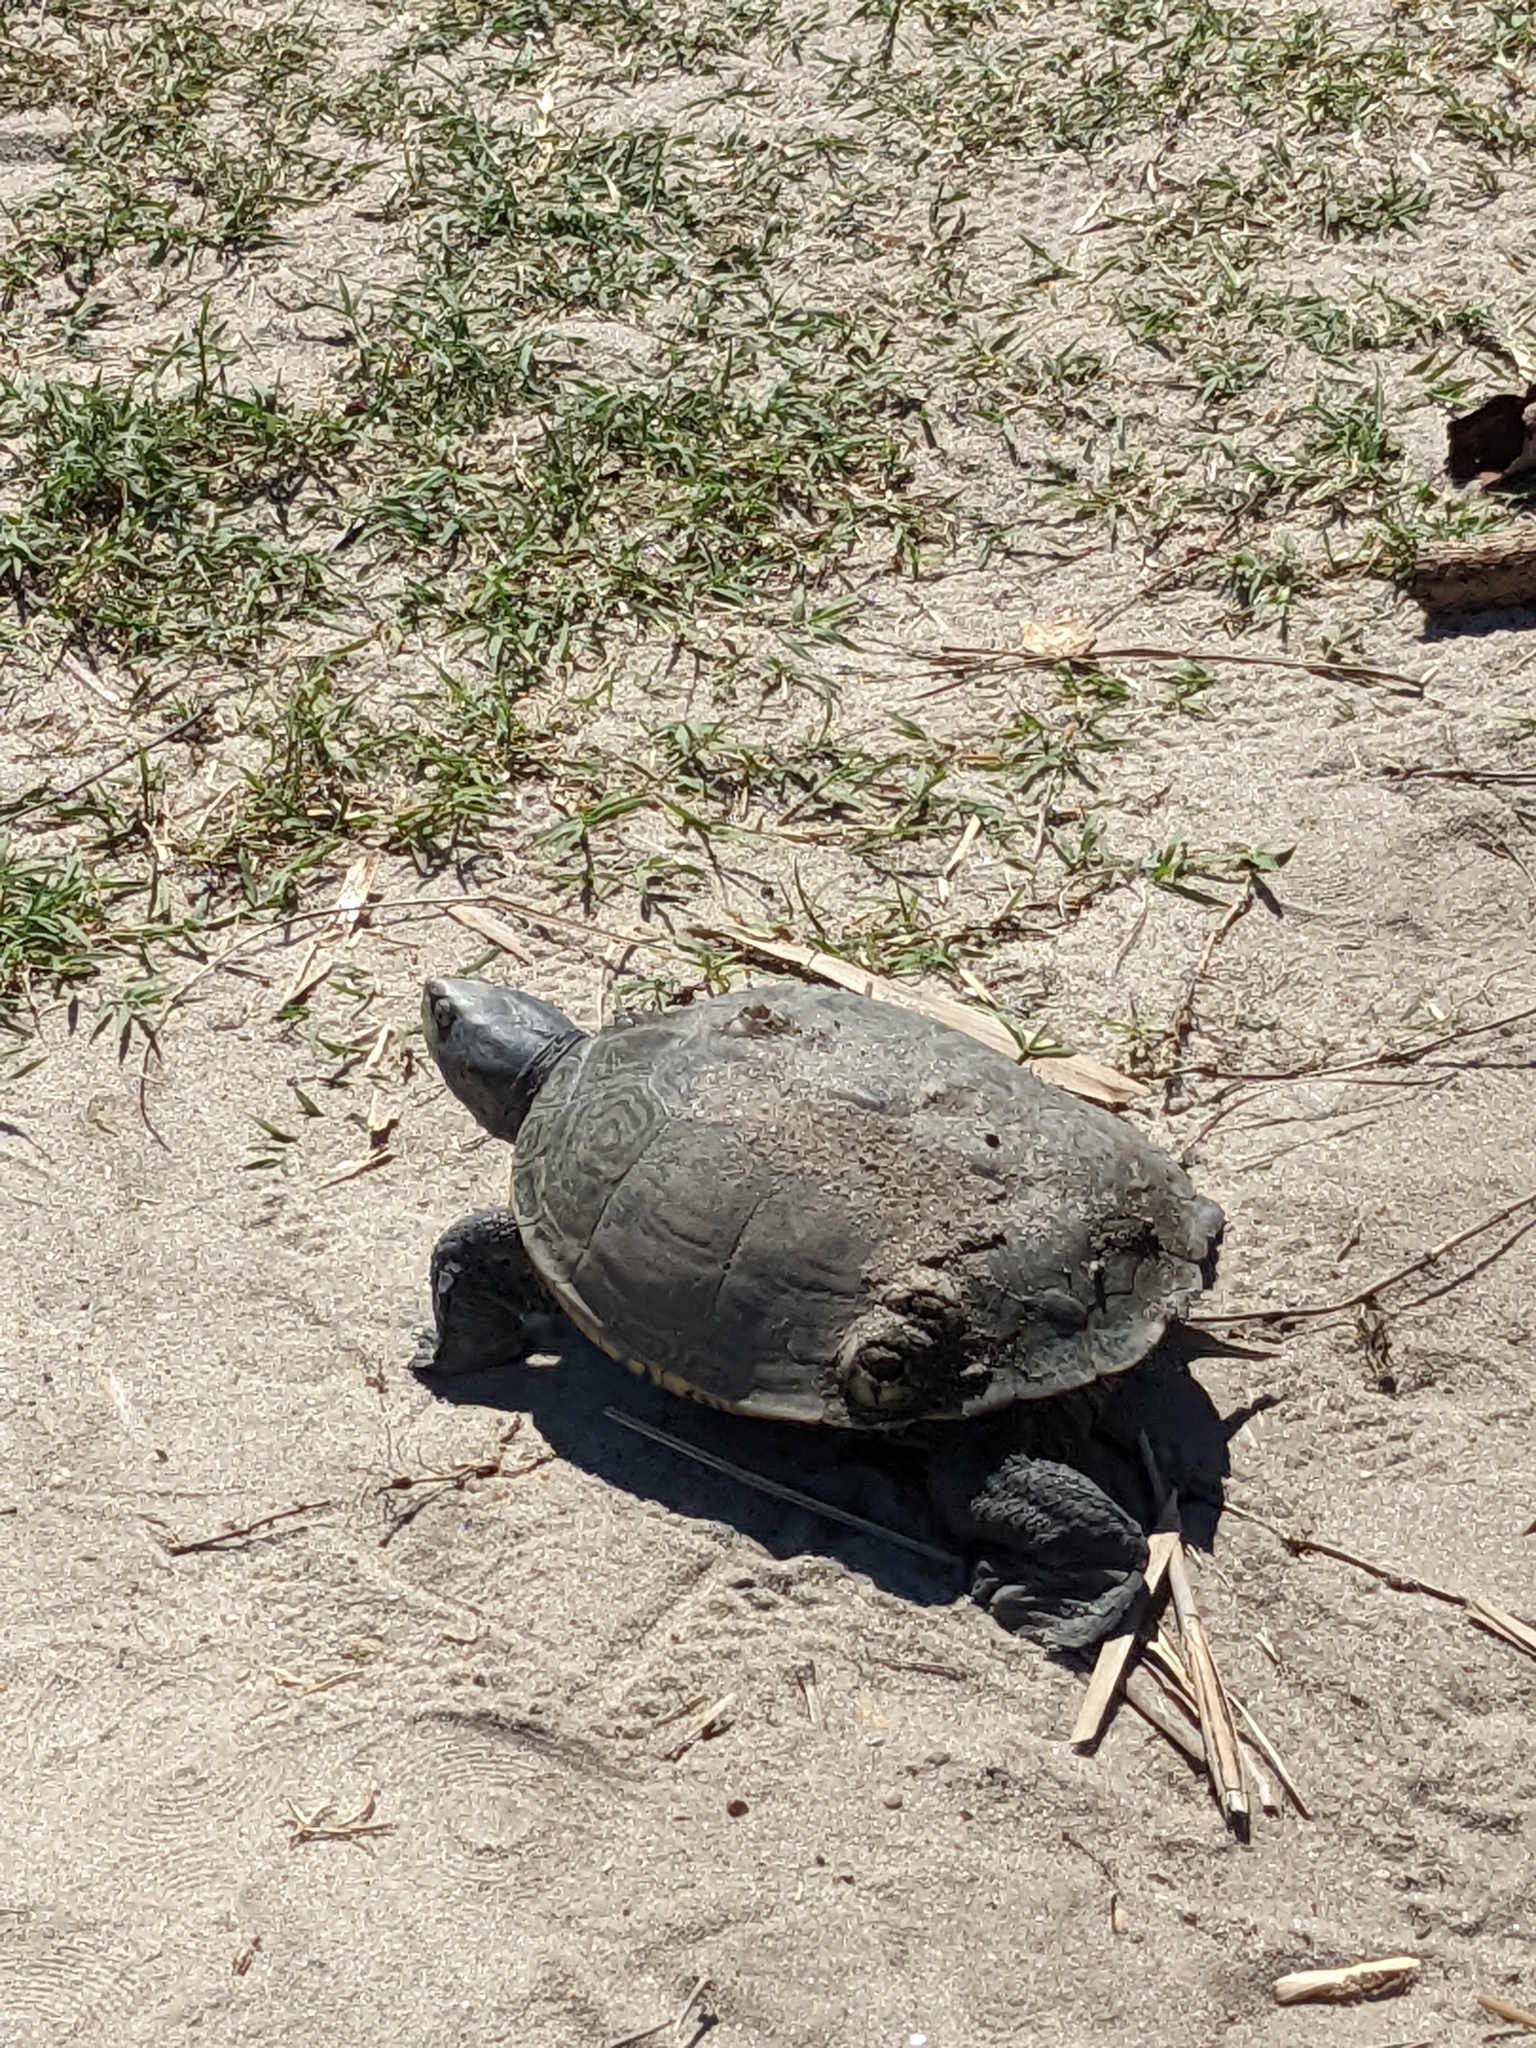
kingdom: Animalia
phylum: Chordata
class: Testudines
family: Emydidae
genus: Malaclemys
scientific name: Malaclemys terrapin
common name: Diamondback terrapin
